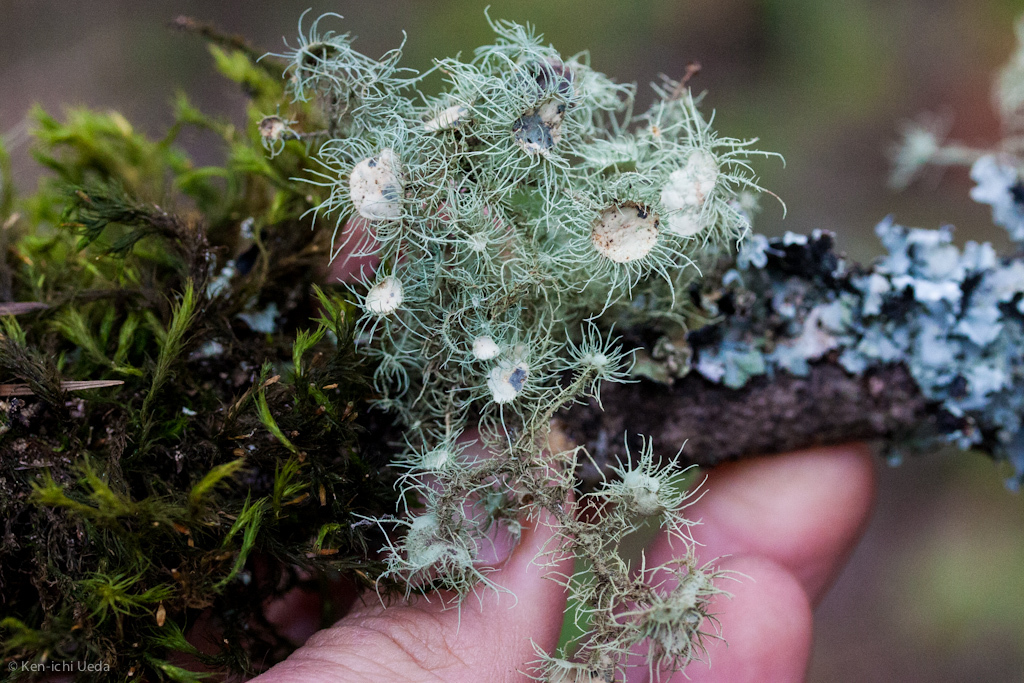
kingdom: Fungi
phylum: Ascomycota
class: Lecanoromycetes
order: Lecanorales
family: Parmeliaceae
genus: Usnea
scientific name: Usnea intermedia
